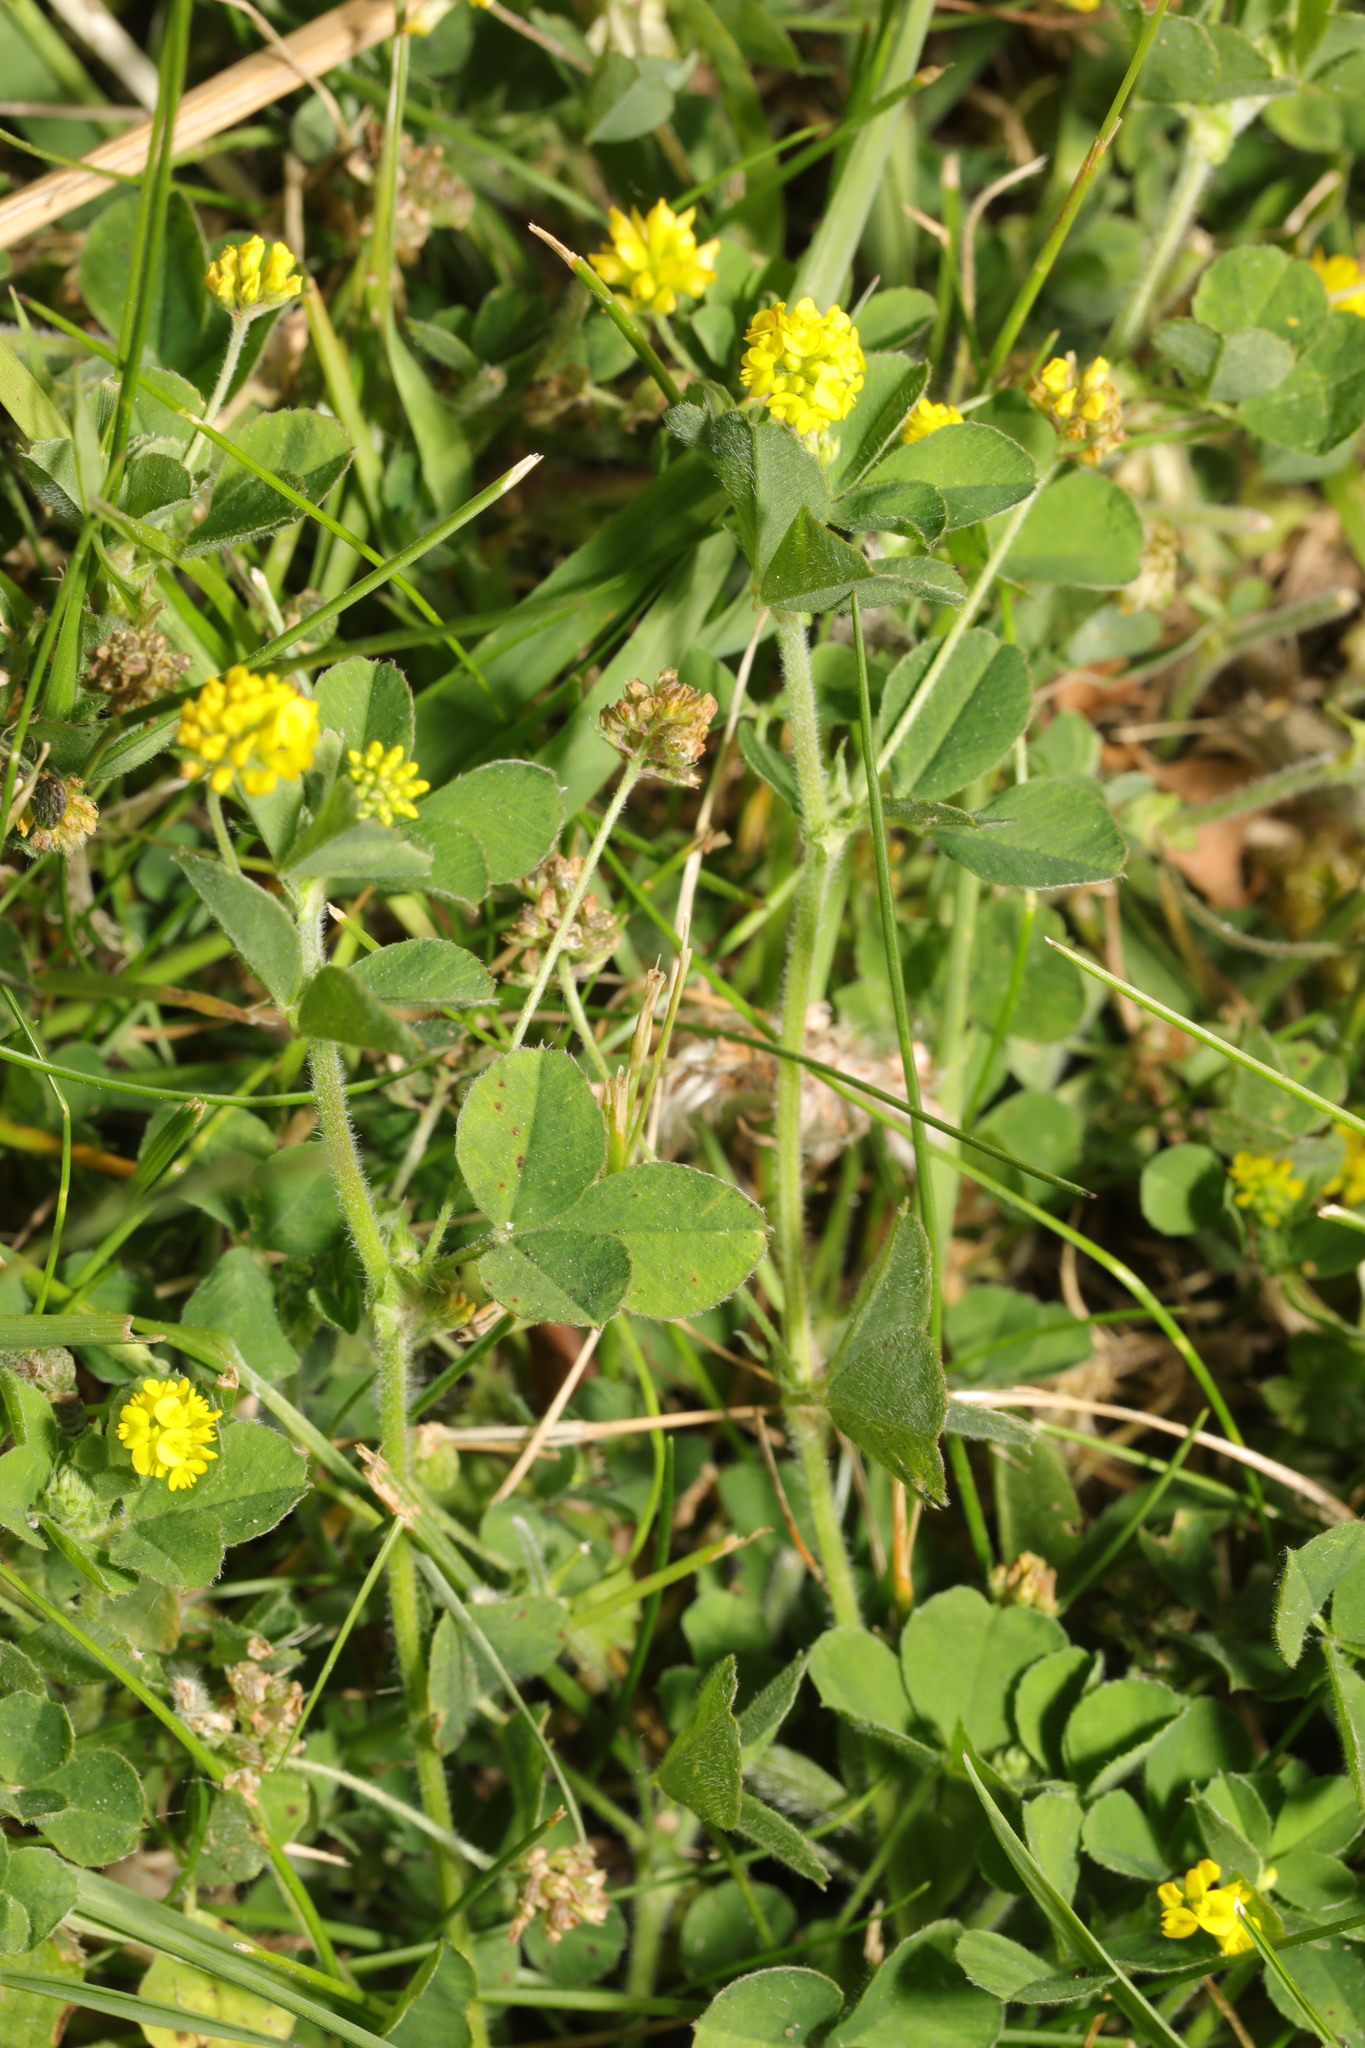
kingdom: Plantae
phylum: Tracheophyta
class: Magnoliopsida
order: Fabales
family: Fabaceae
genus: Medicago
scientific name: Medicago lupulina
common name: Black medick
